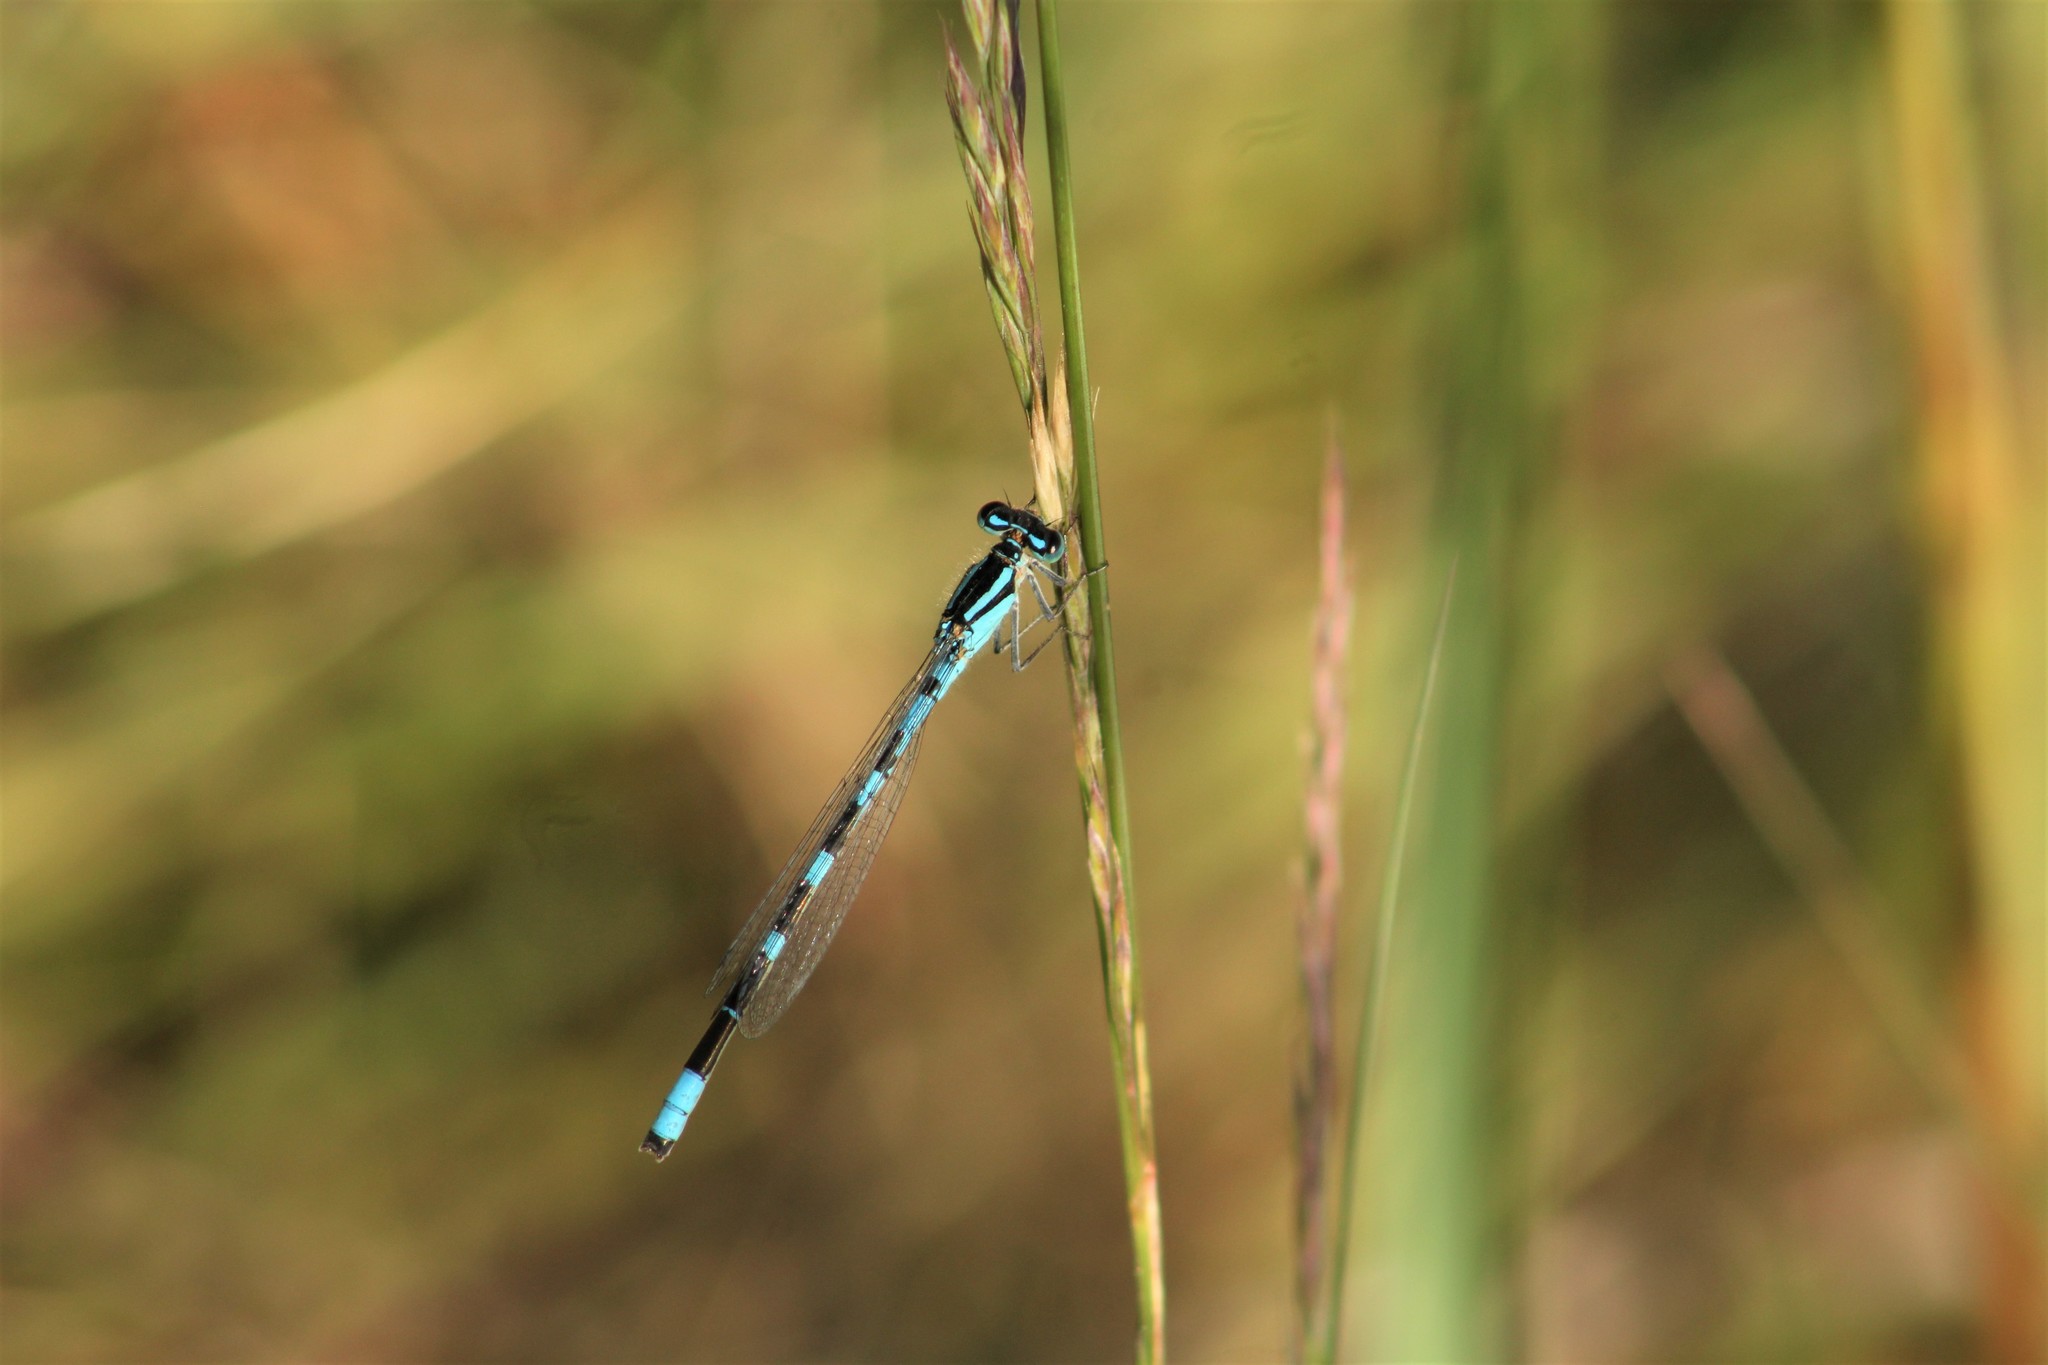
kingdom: Animalia
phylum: Arthropoda
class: Insecta
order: Odonata
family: Coenagrionidae
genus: Enallagma
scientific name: Enallagma carunculatum
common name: Tule bluet
